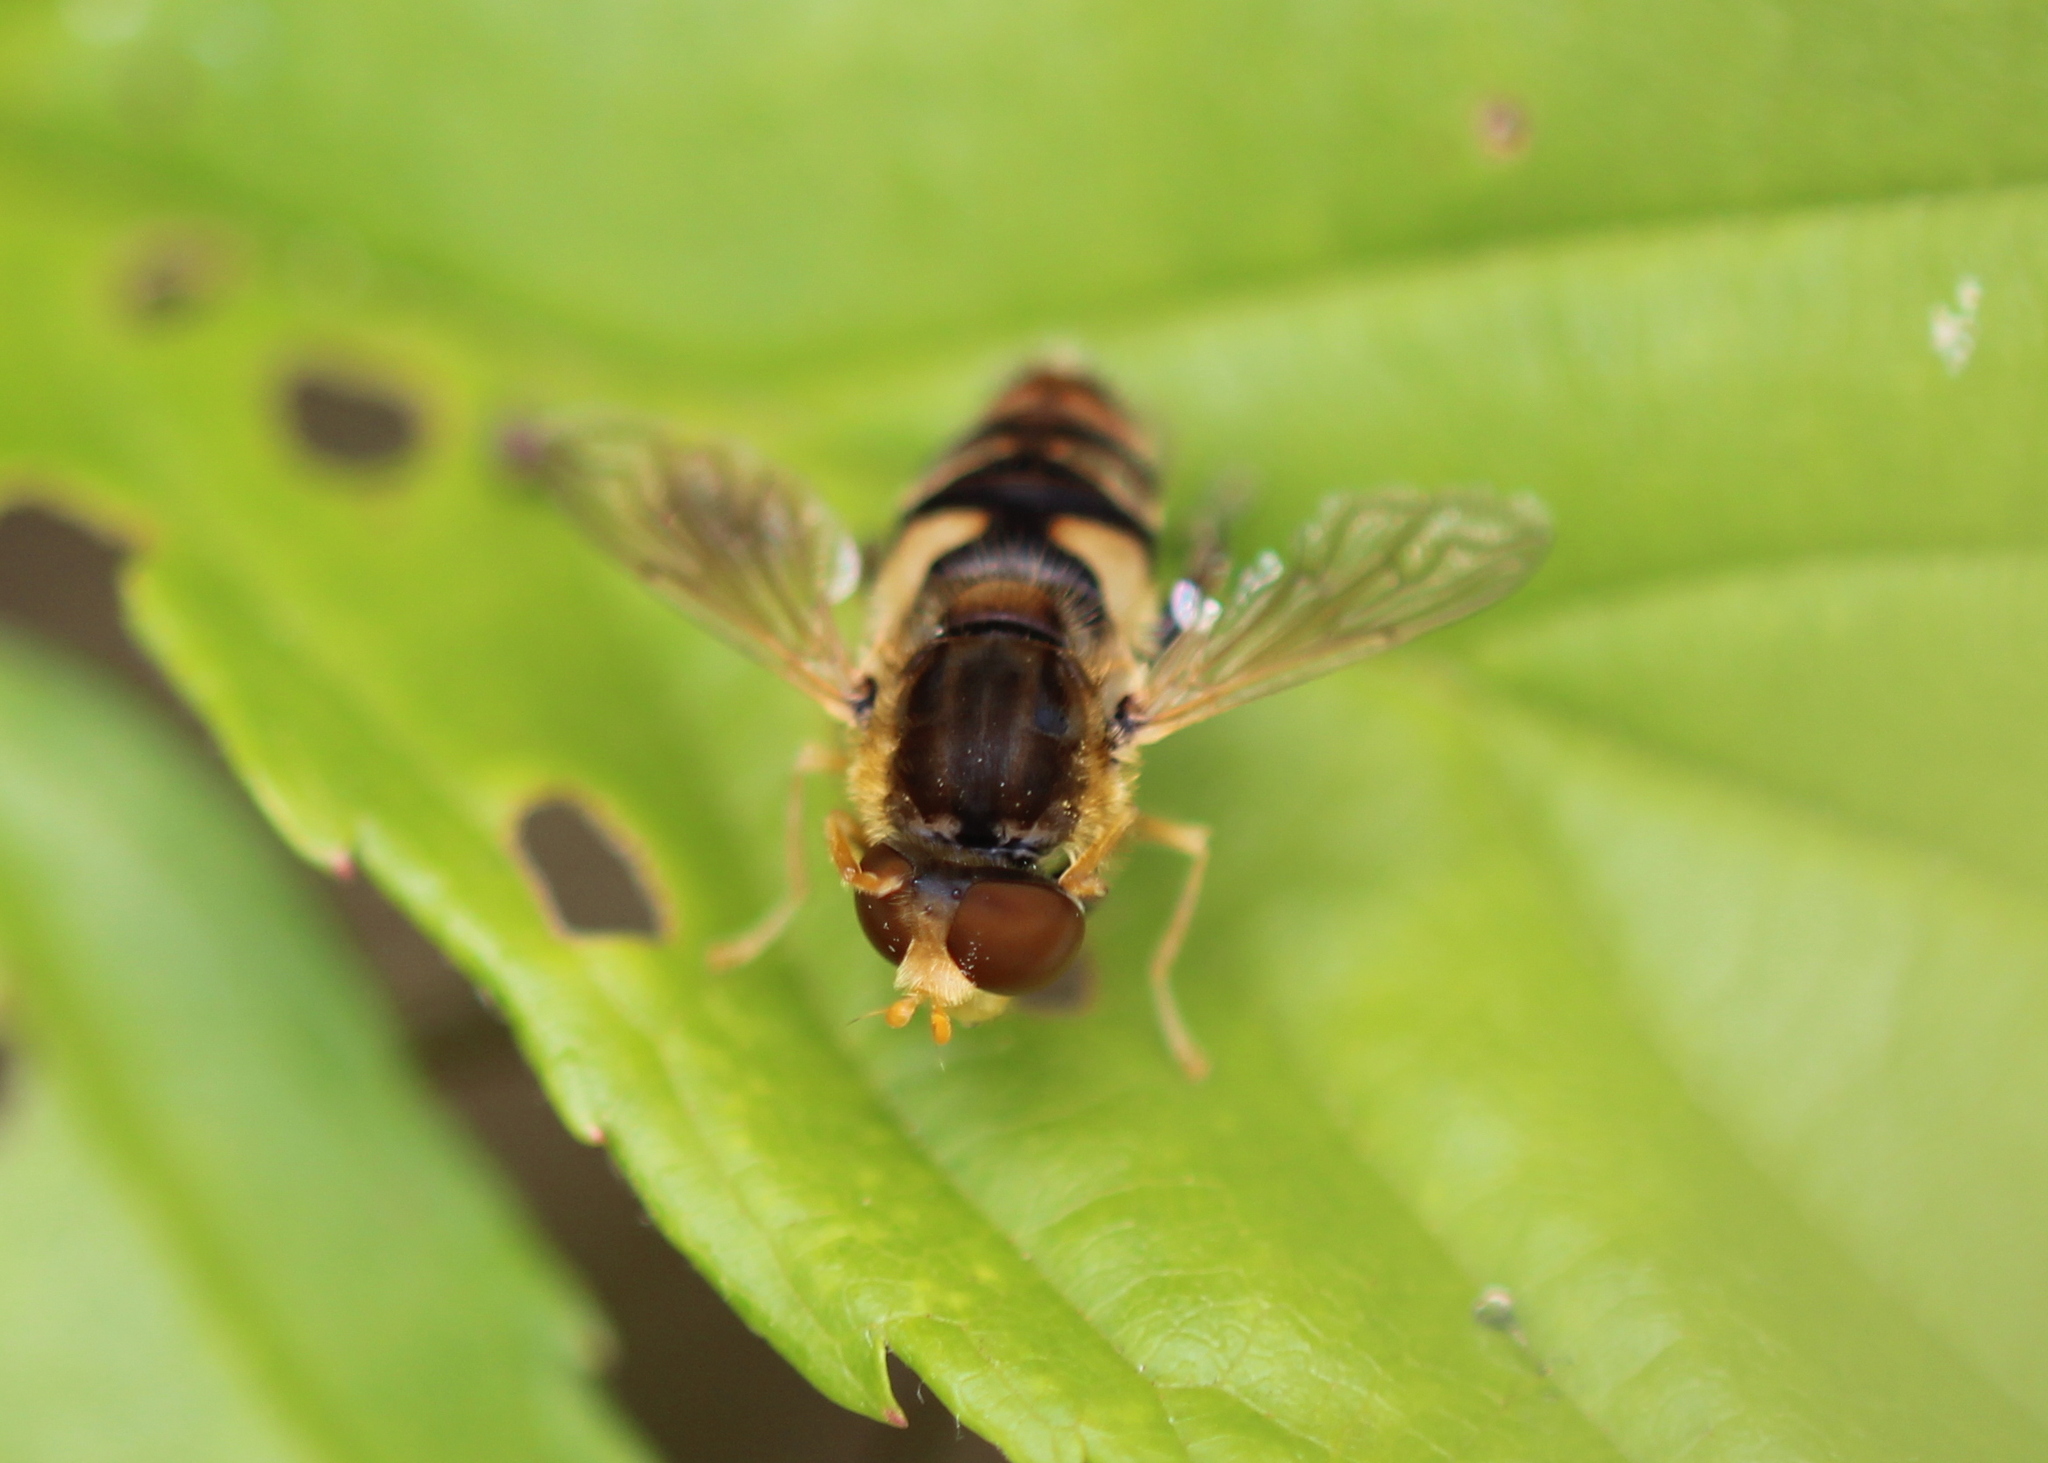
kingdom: Animalia
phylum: Arthropoda
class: Insecta
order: Diptera
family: Syrphidae
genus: Parhelophilus
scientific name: Parhelophilus laetus
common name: Common bog fly
